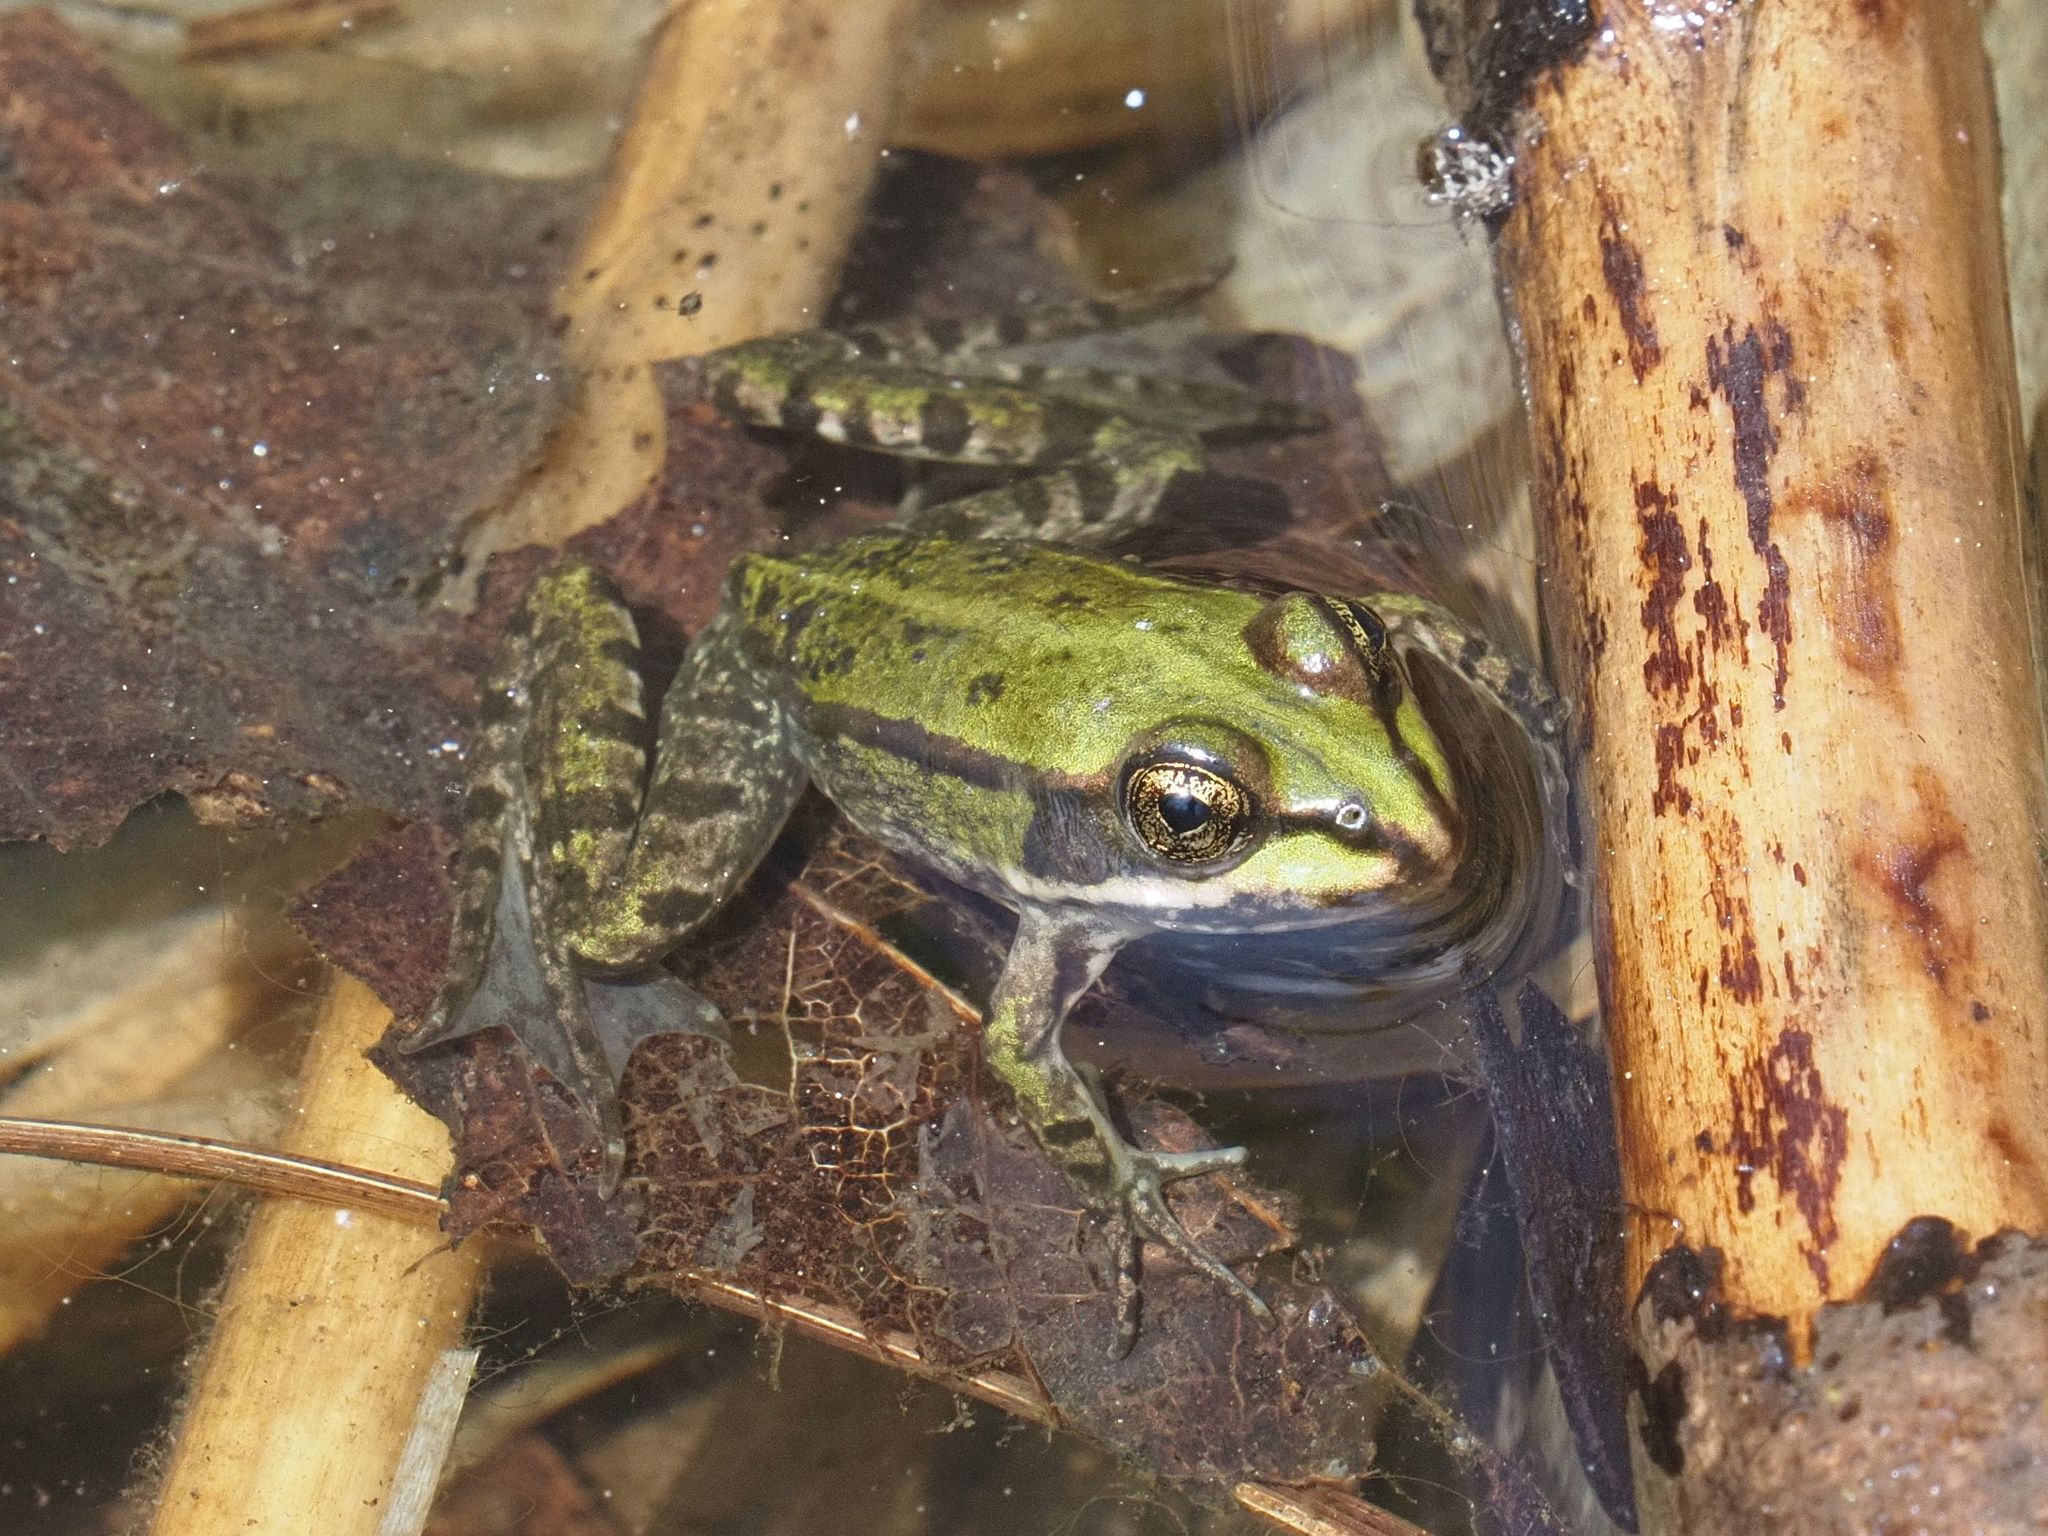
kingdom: Animalia
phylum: Chordata
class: Amphibia
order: Anura
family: Ranidae
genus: Pelophylax
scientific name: Pelophylax
